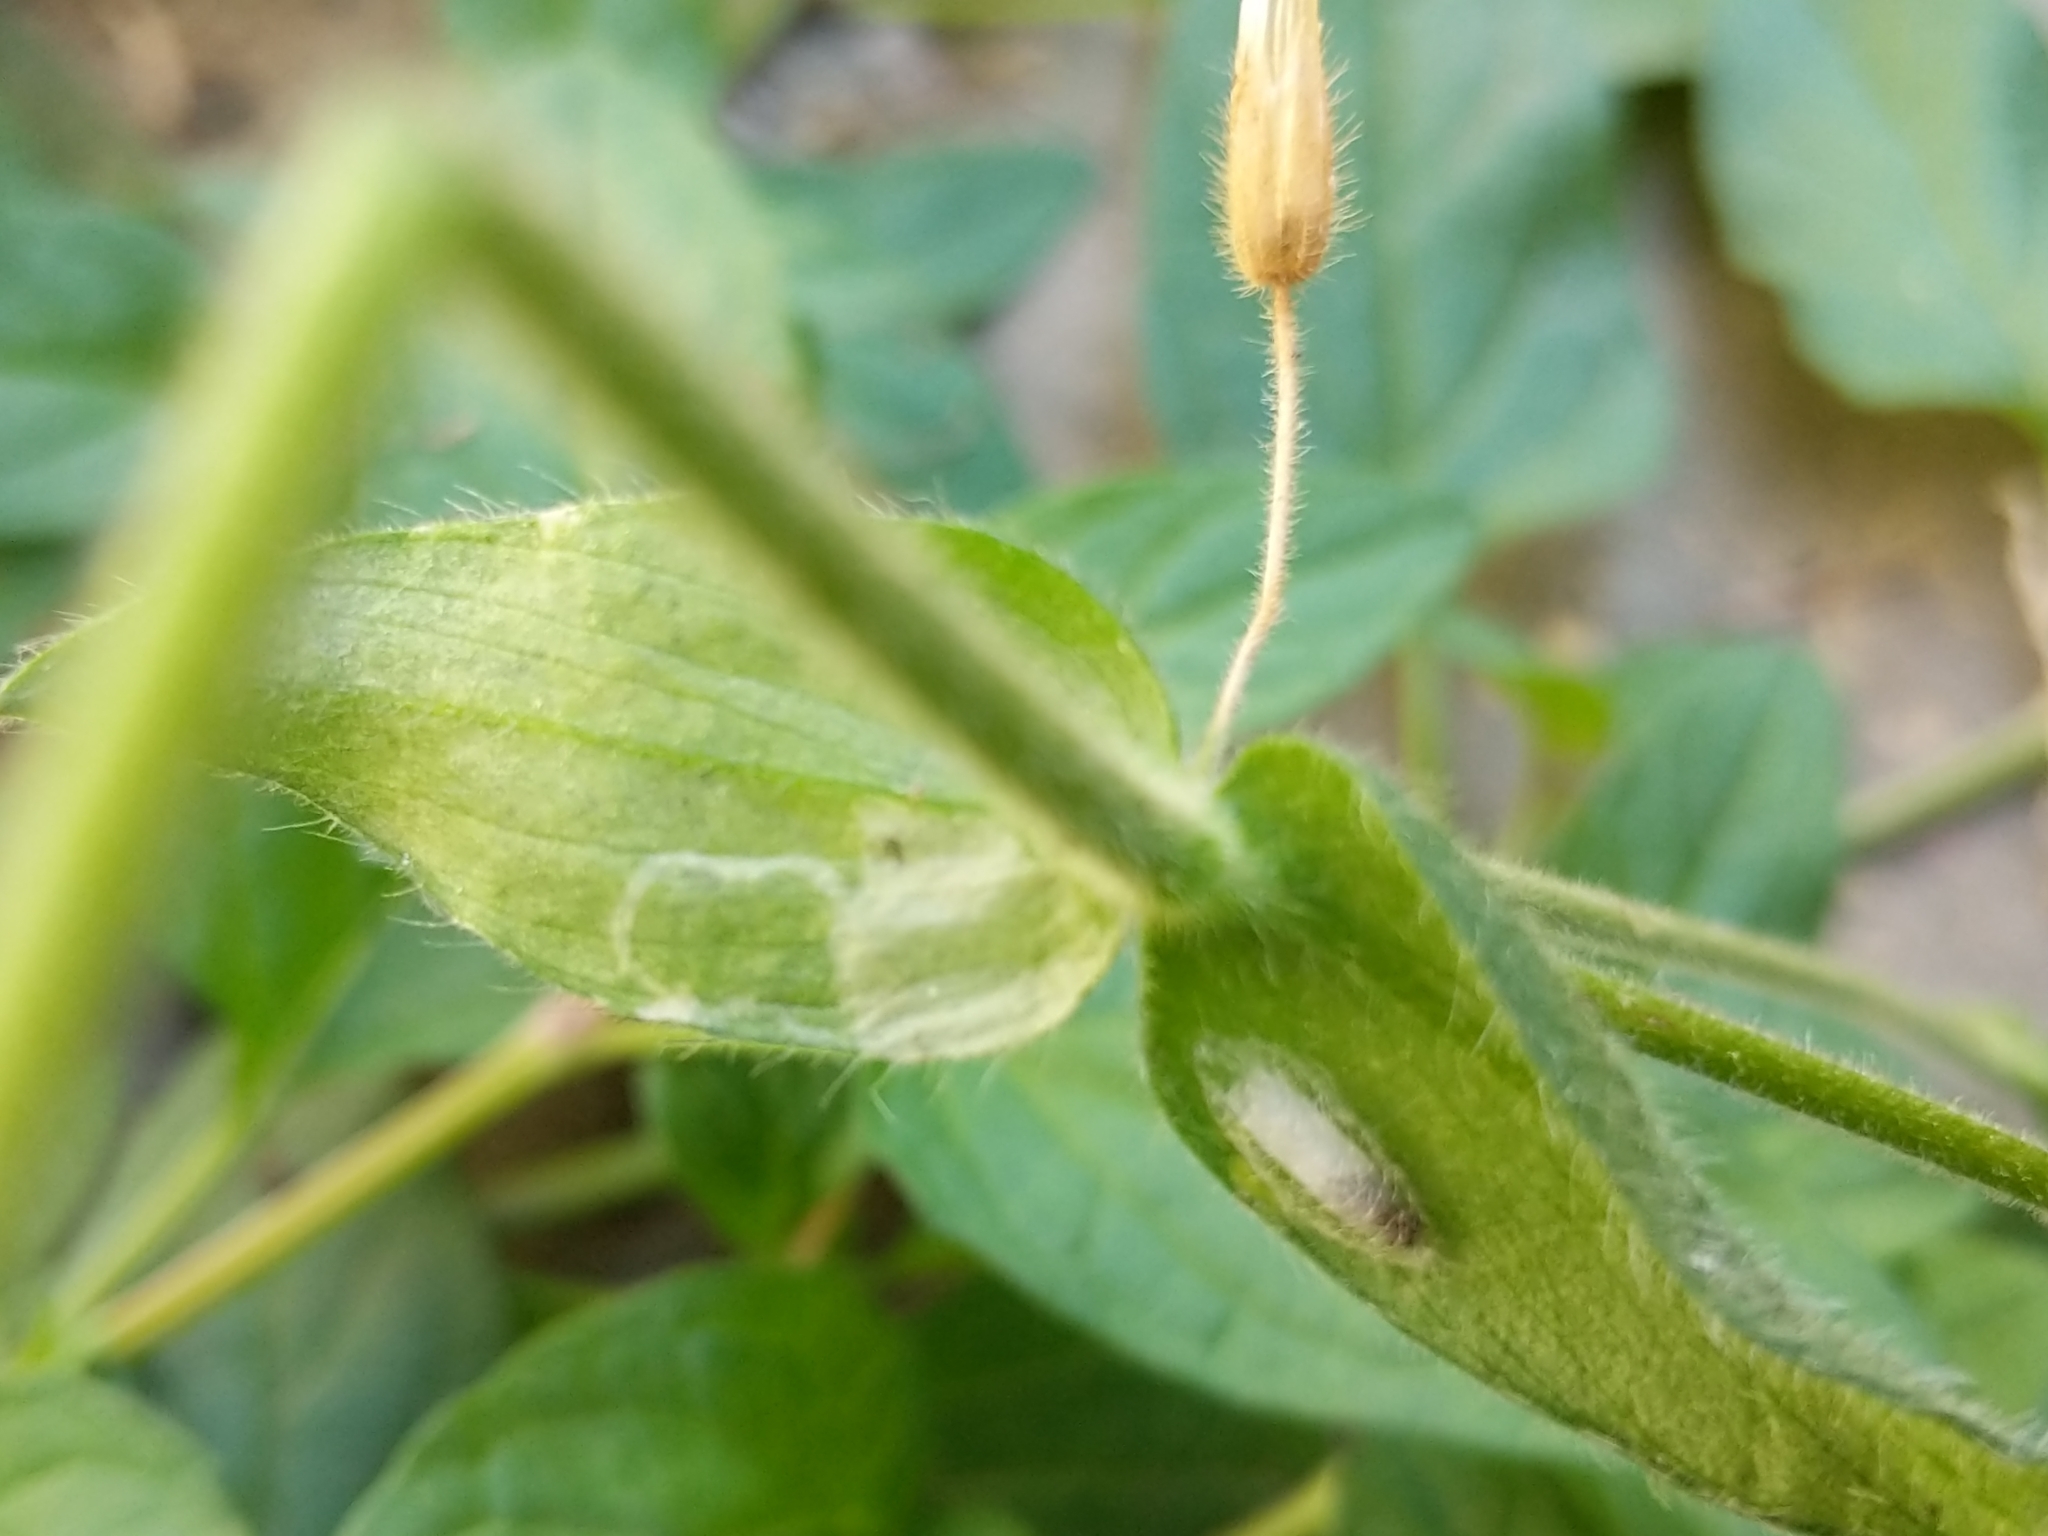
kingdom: Animalia
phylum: Arthropoda
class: Insecta
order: Lepidoptera
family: Plutellidae
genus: Plutella
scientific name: Plutella xylostella
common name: Diamond-back moth
